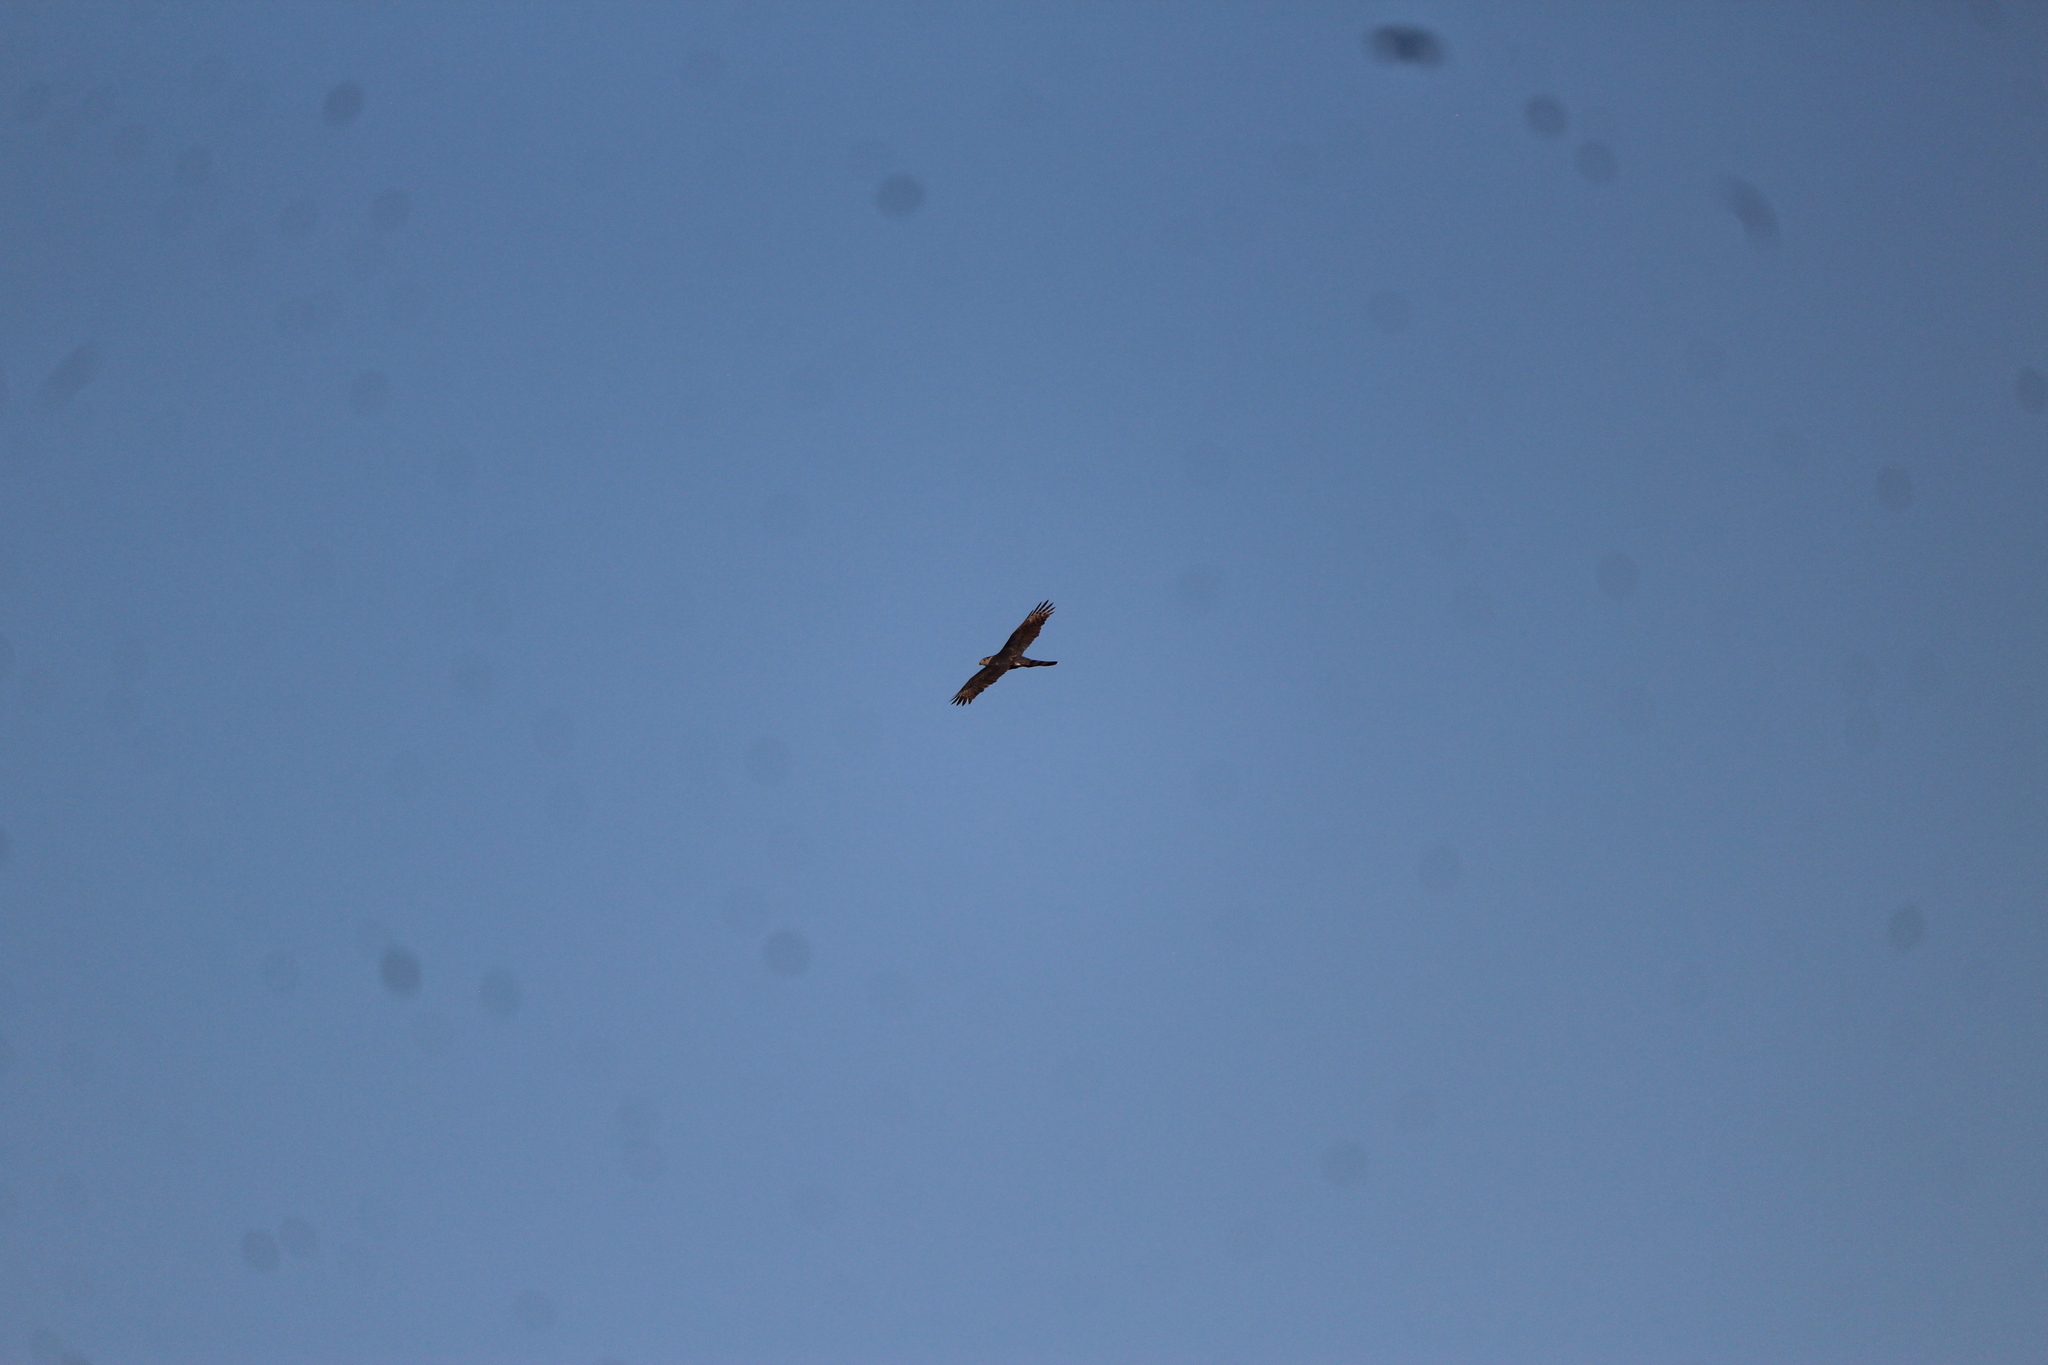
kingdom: Animalia
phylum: Chordata
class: Aves
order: Accipitriformes
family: Accipitridae
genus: Accipiter
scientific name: Accipiter cooperii
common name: Cooper's hawk
